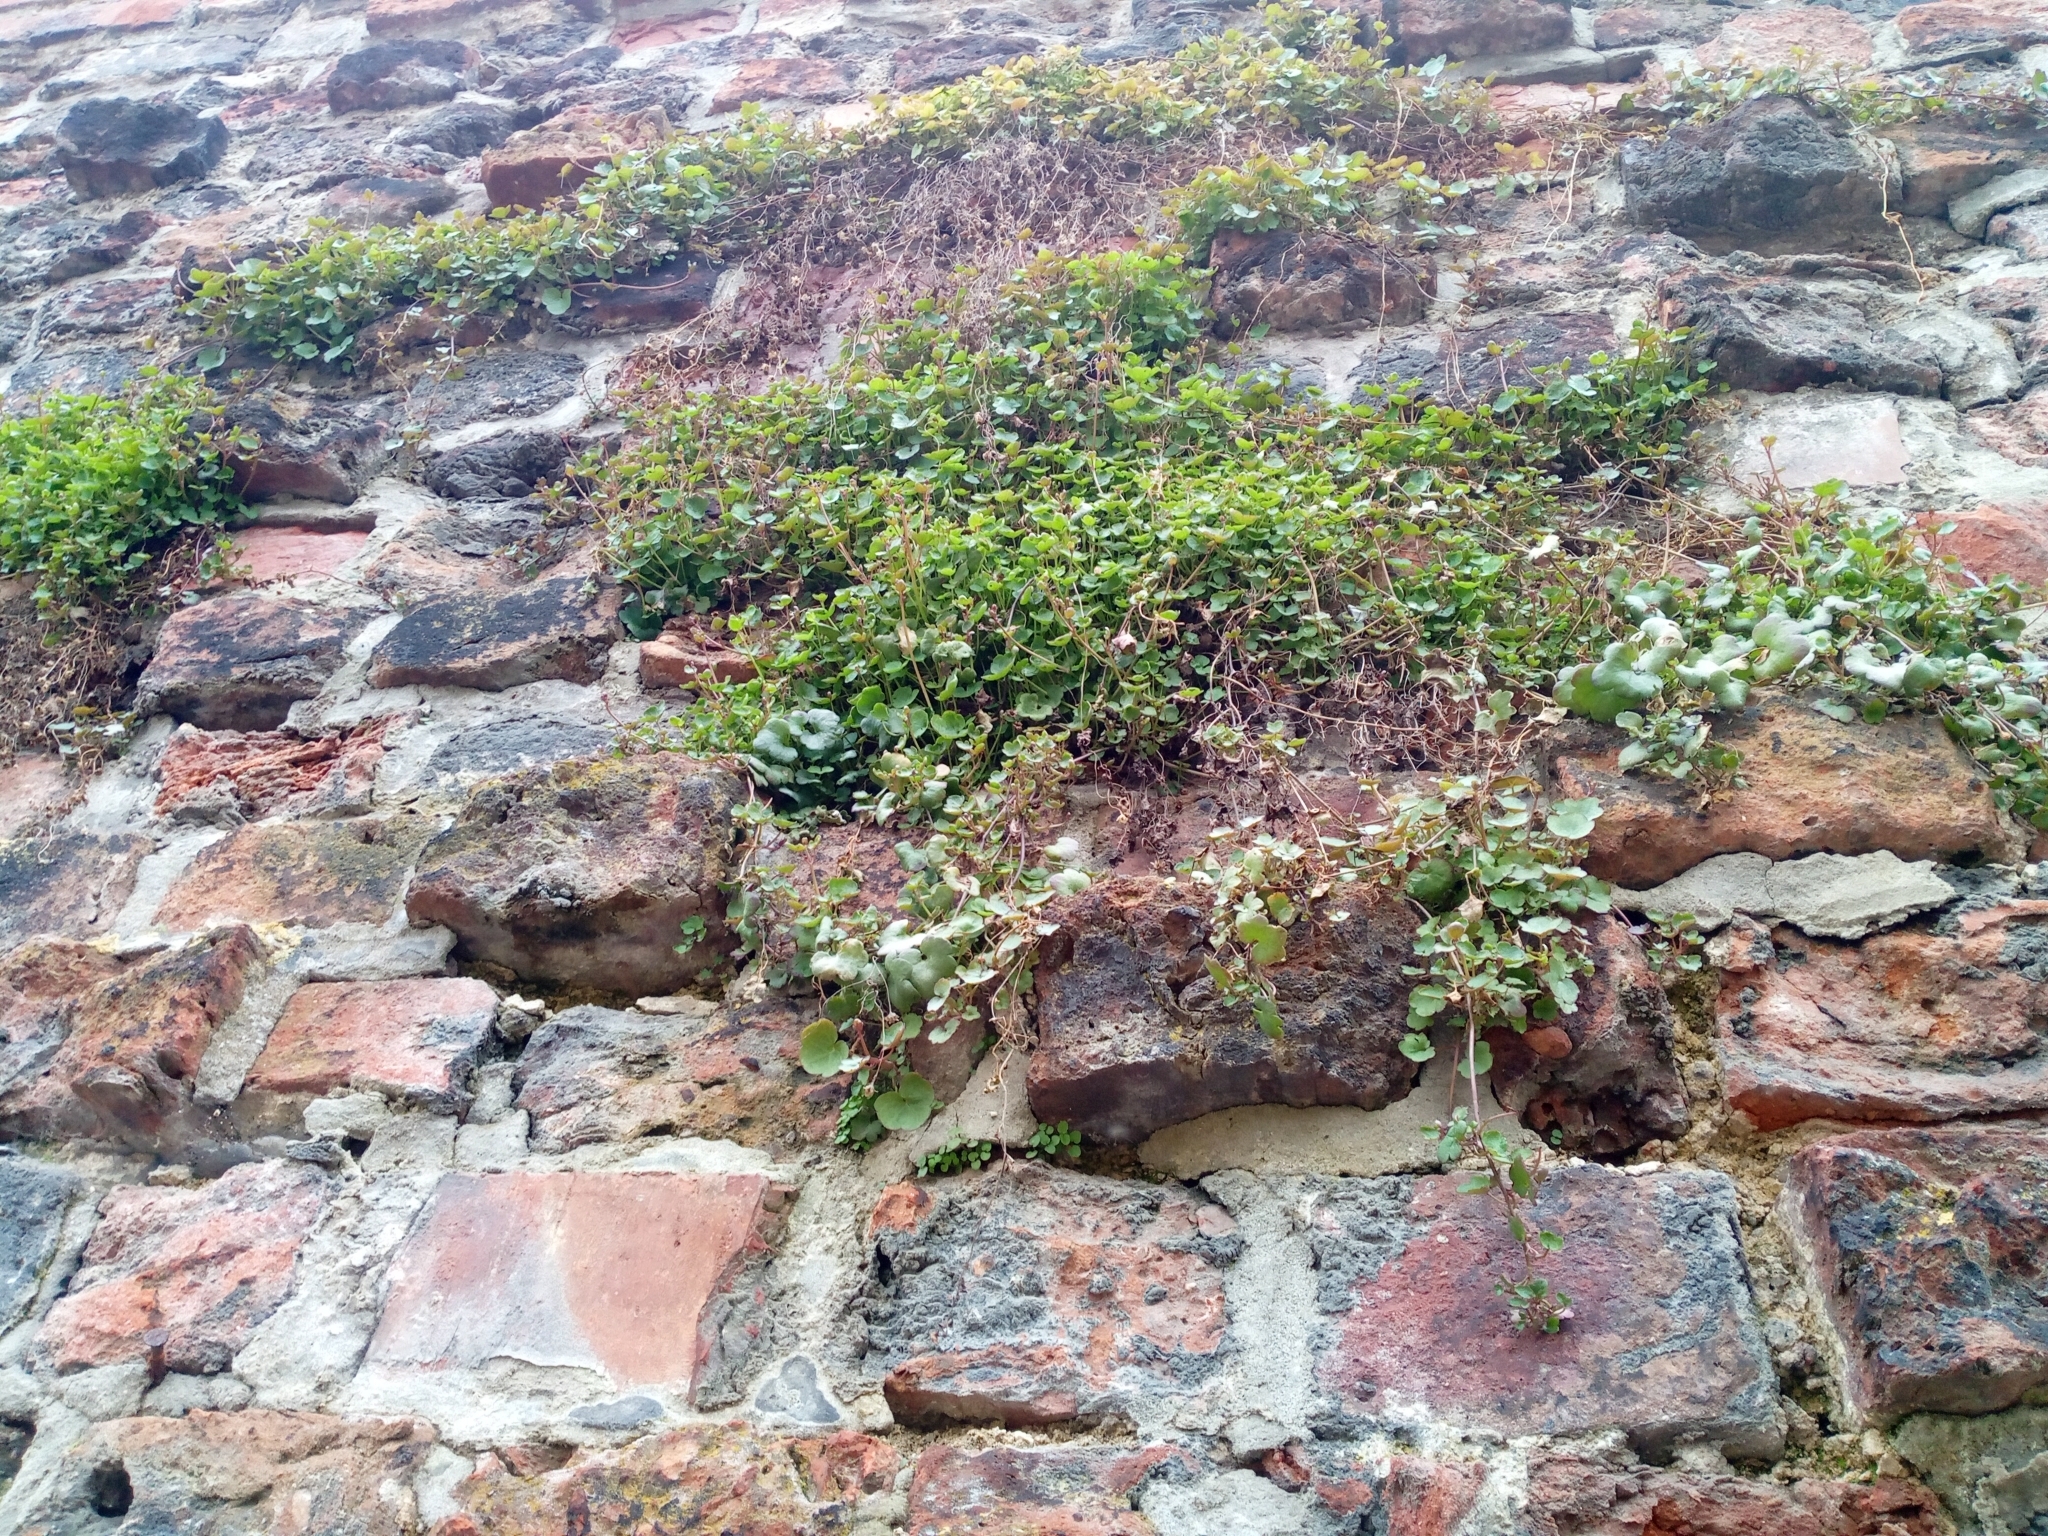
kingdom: Plantae
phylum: Tracheophyta
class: Magnoliopsida
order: Lamiales
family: Plantaginaceae
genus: Cymbalaria
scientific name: Cymbalaria muralis
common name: Ivy-leaved toadflax
